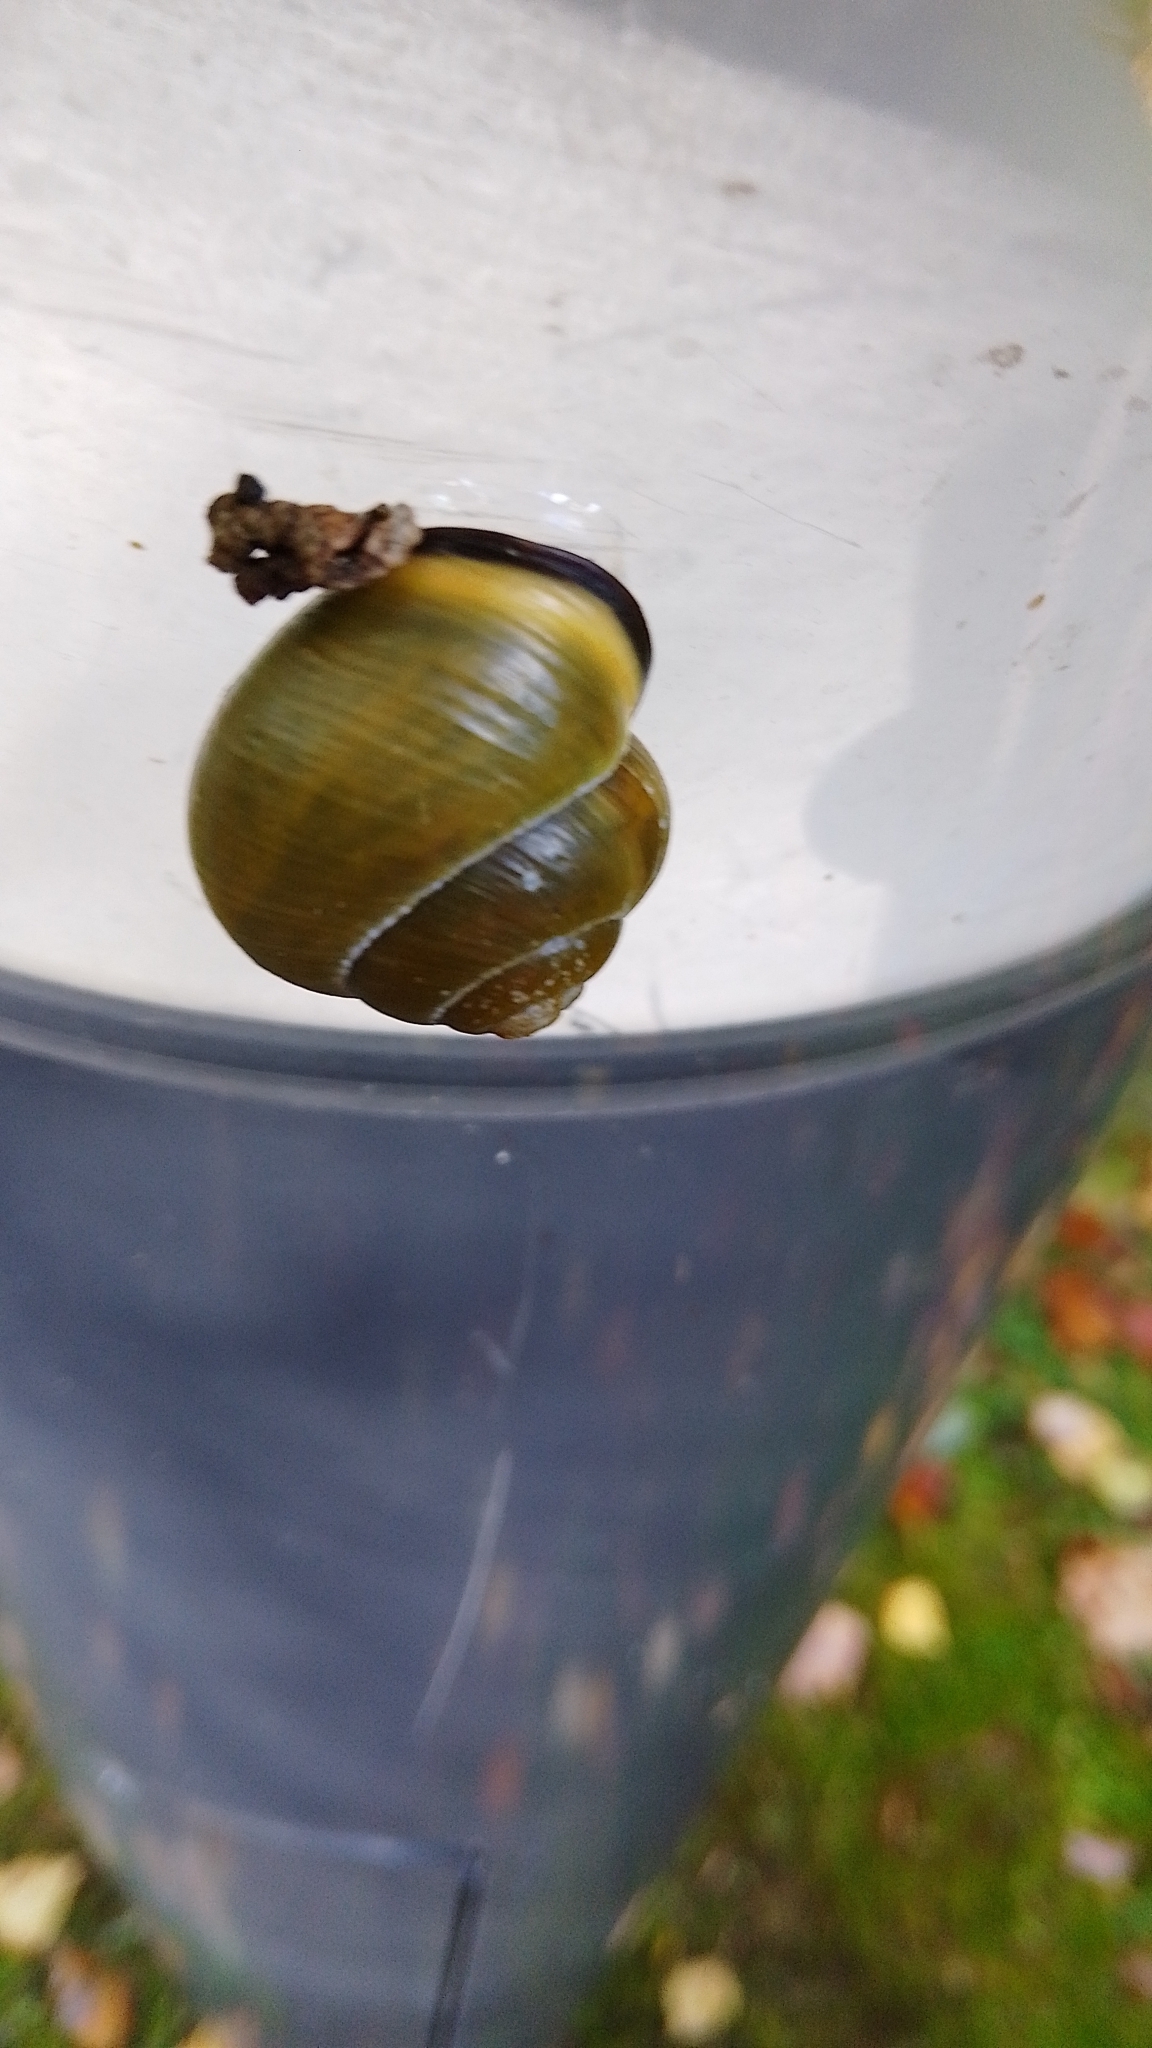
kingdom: Animalia
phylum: Mollusca
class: Gastropoda
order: Stylommatophora
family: Helicidae
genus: Cepaea
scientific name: Cepaea nemoralis
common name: Grovesnail
